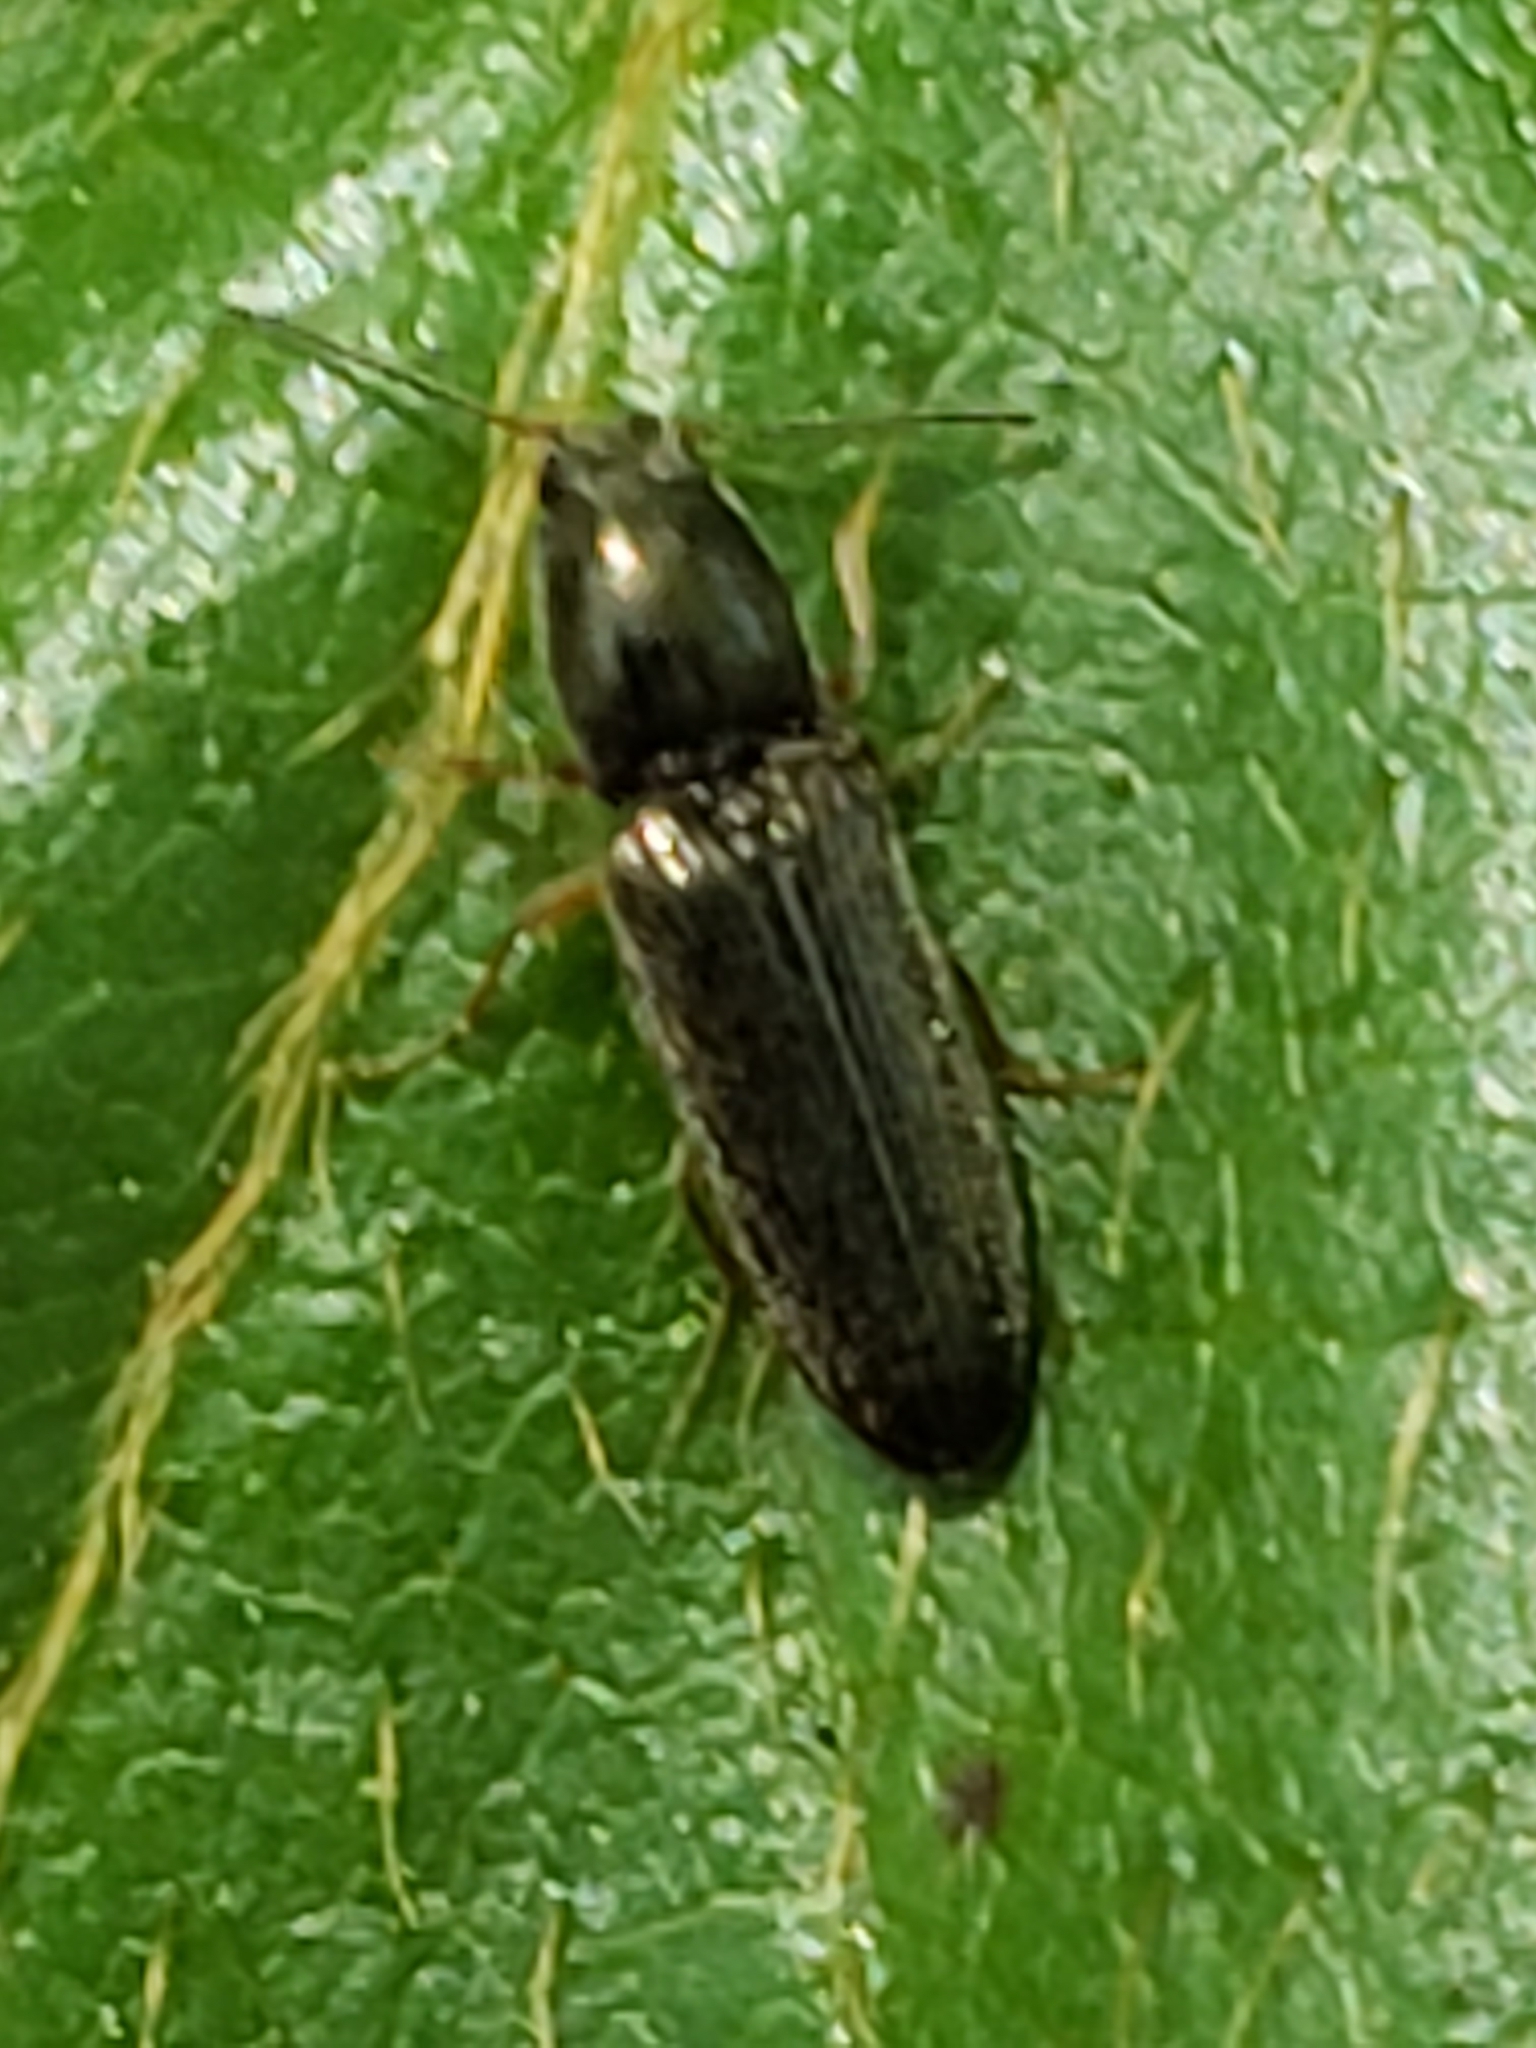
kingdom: Animalia
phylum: Arthropoda
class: Insecta
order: Coleoptera
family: Elateridae
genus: Limonius
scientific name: Limonius quercinus
